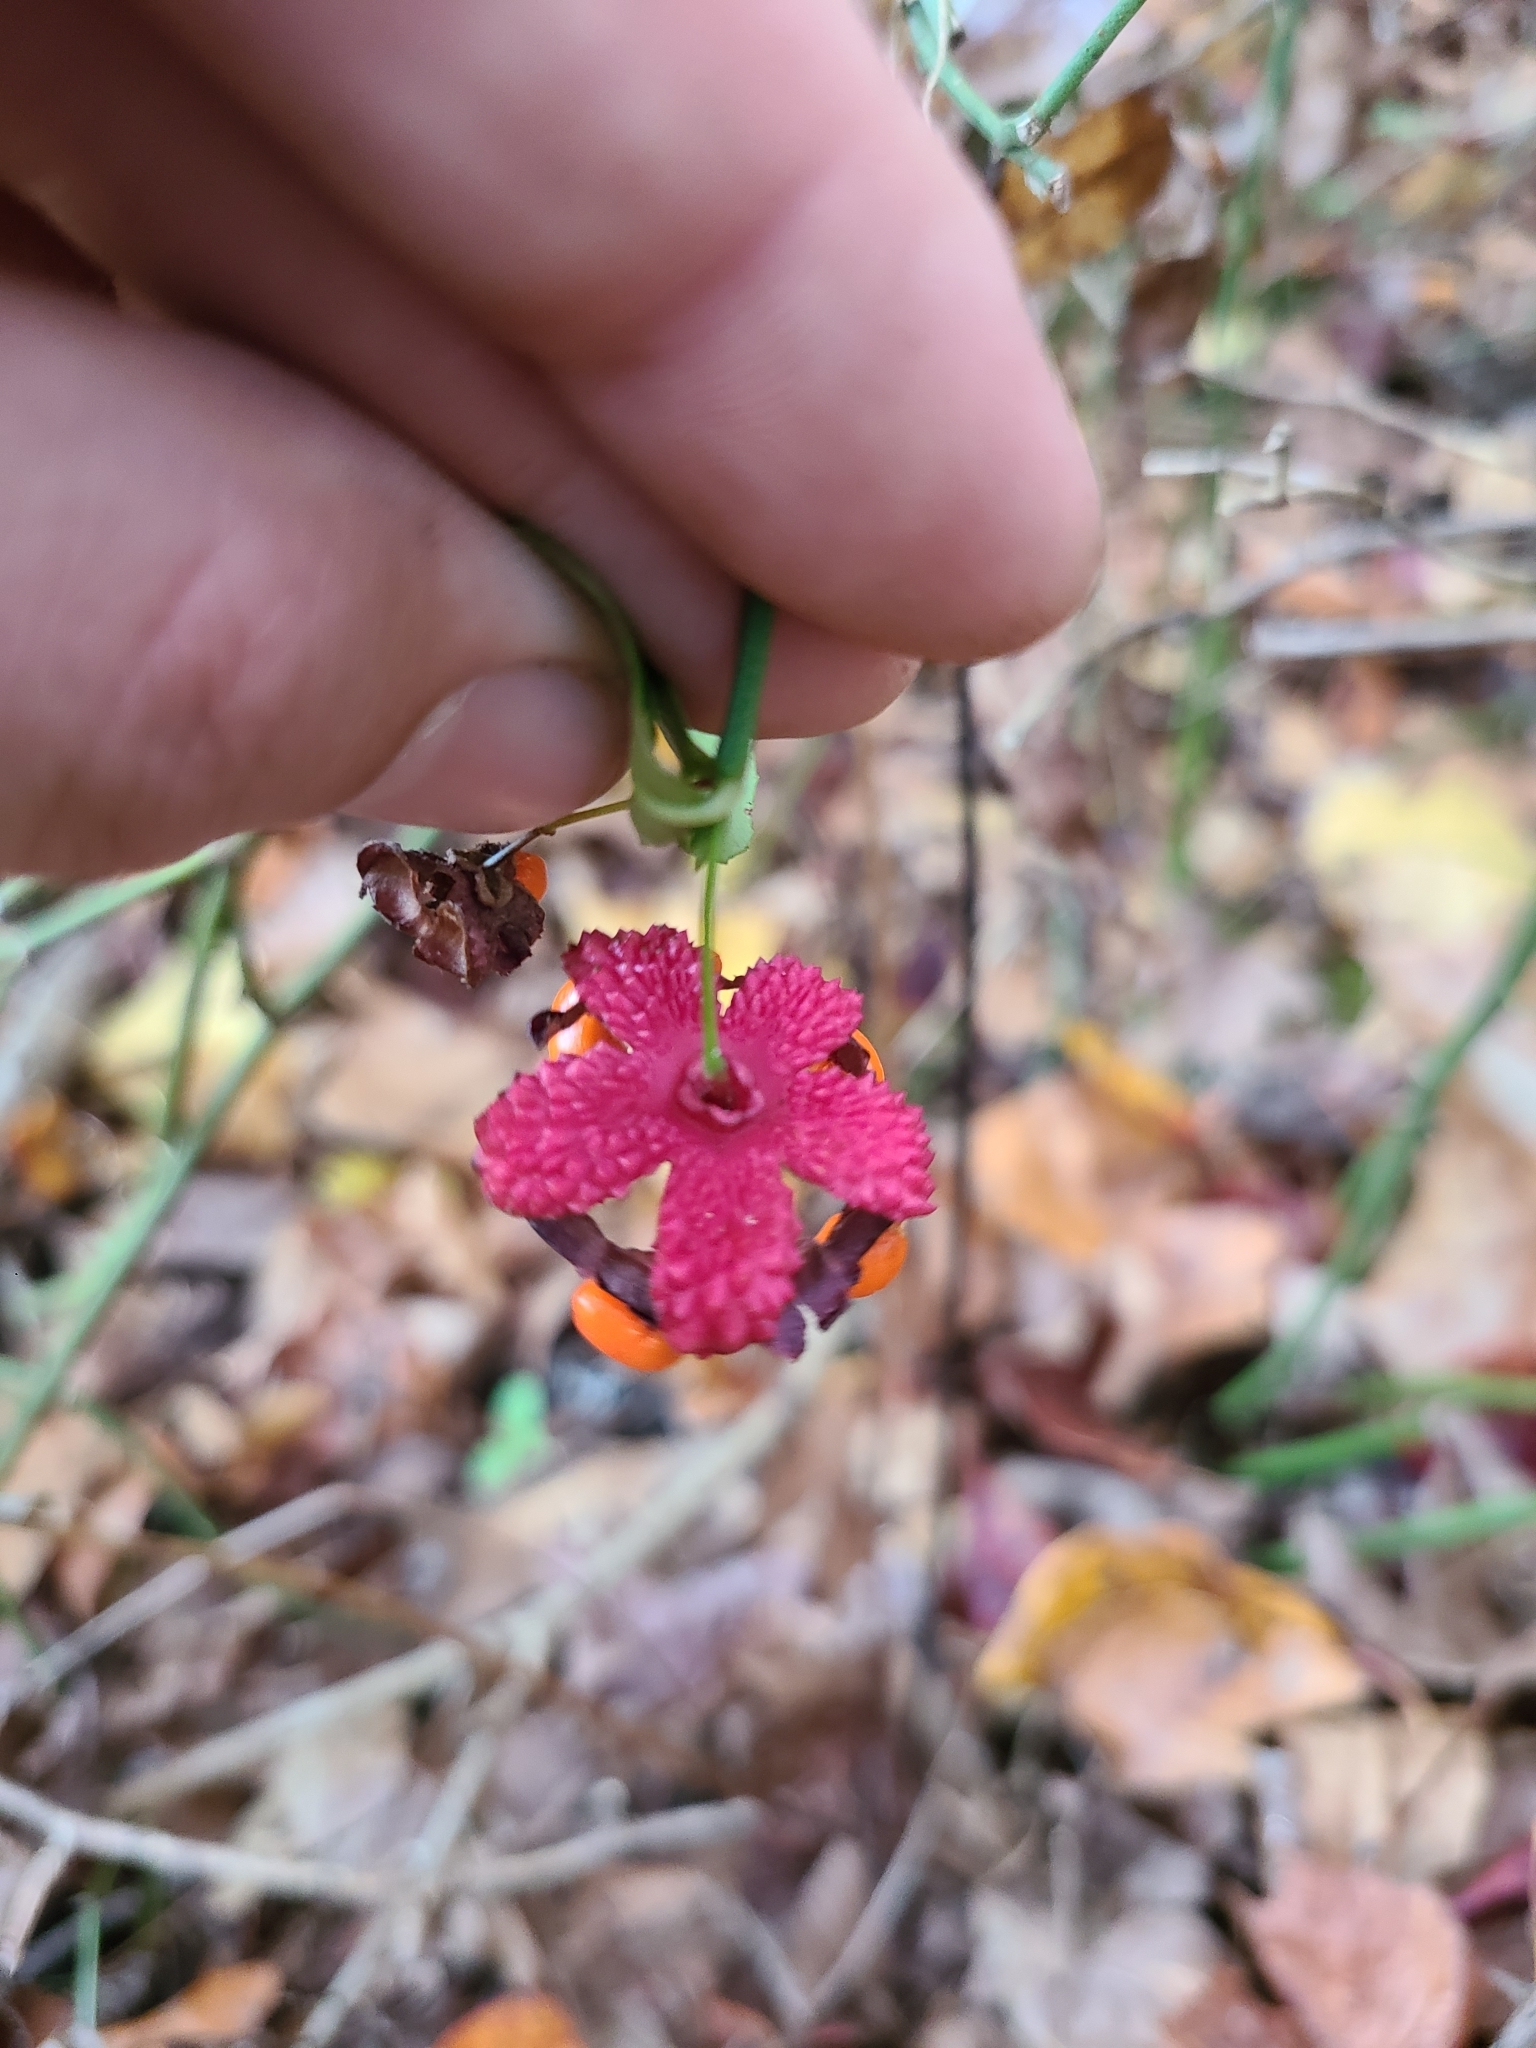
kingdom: Plantae
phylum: Tracheophyta
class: Magnoliopsida
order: Celastrales
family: Celastraceae
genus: Euonymus
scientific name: Euonymus americanus
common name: Bursting-heart
